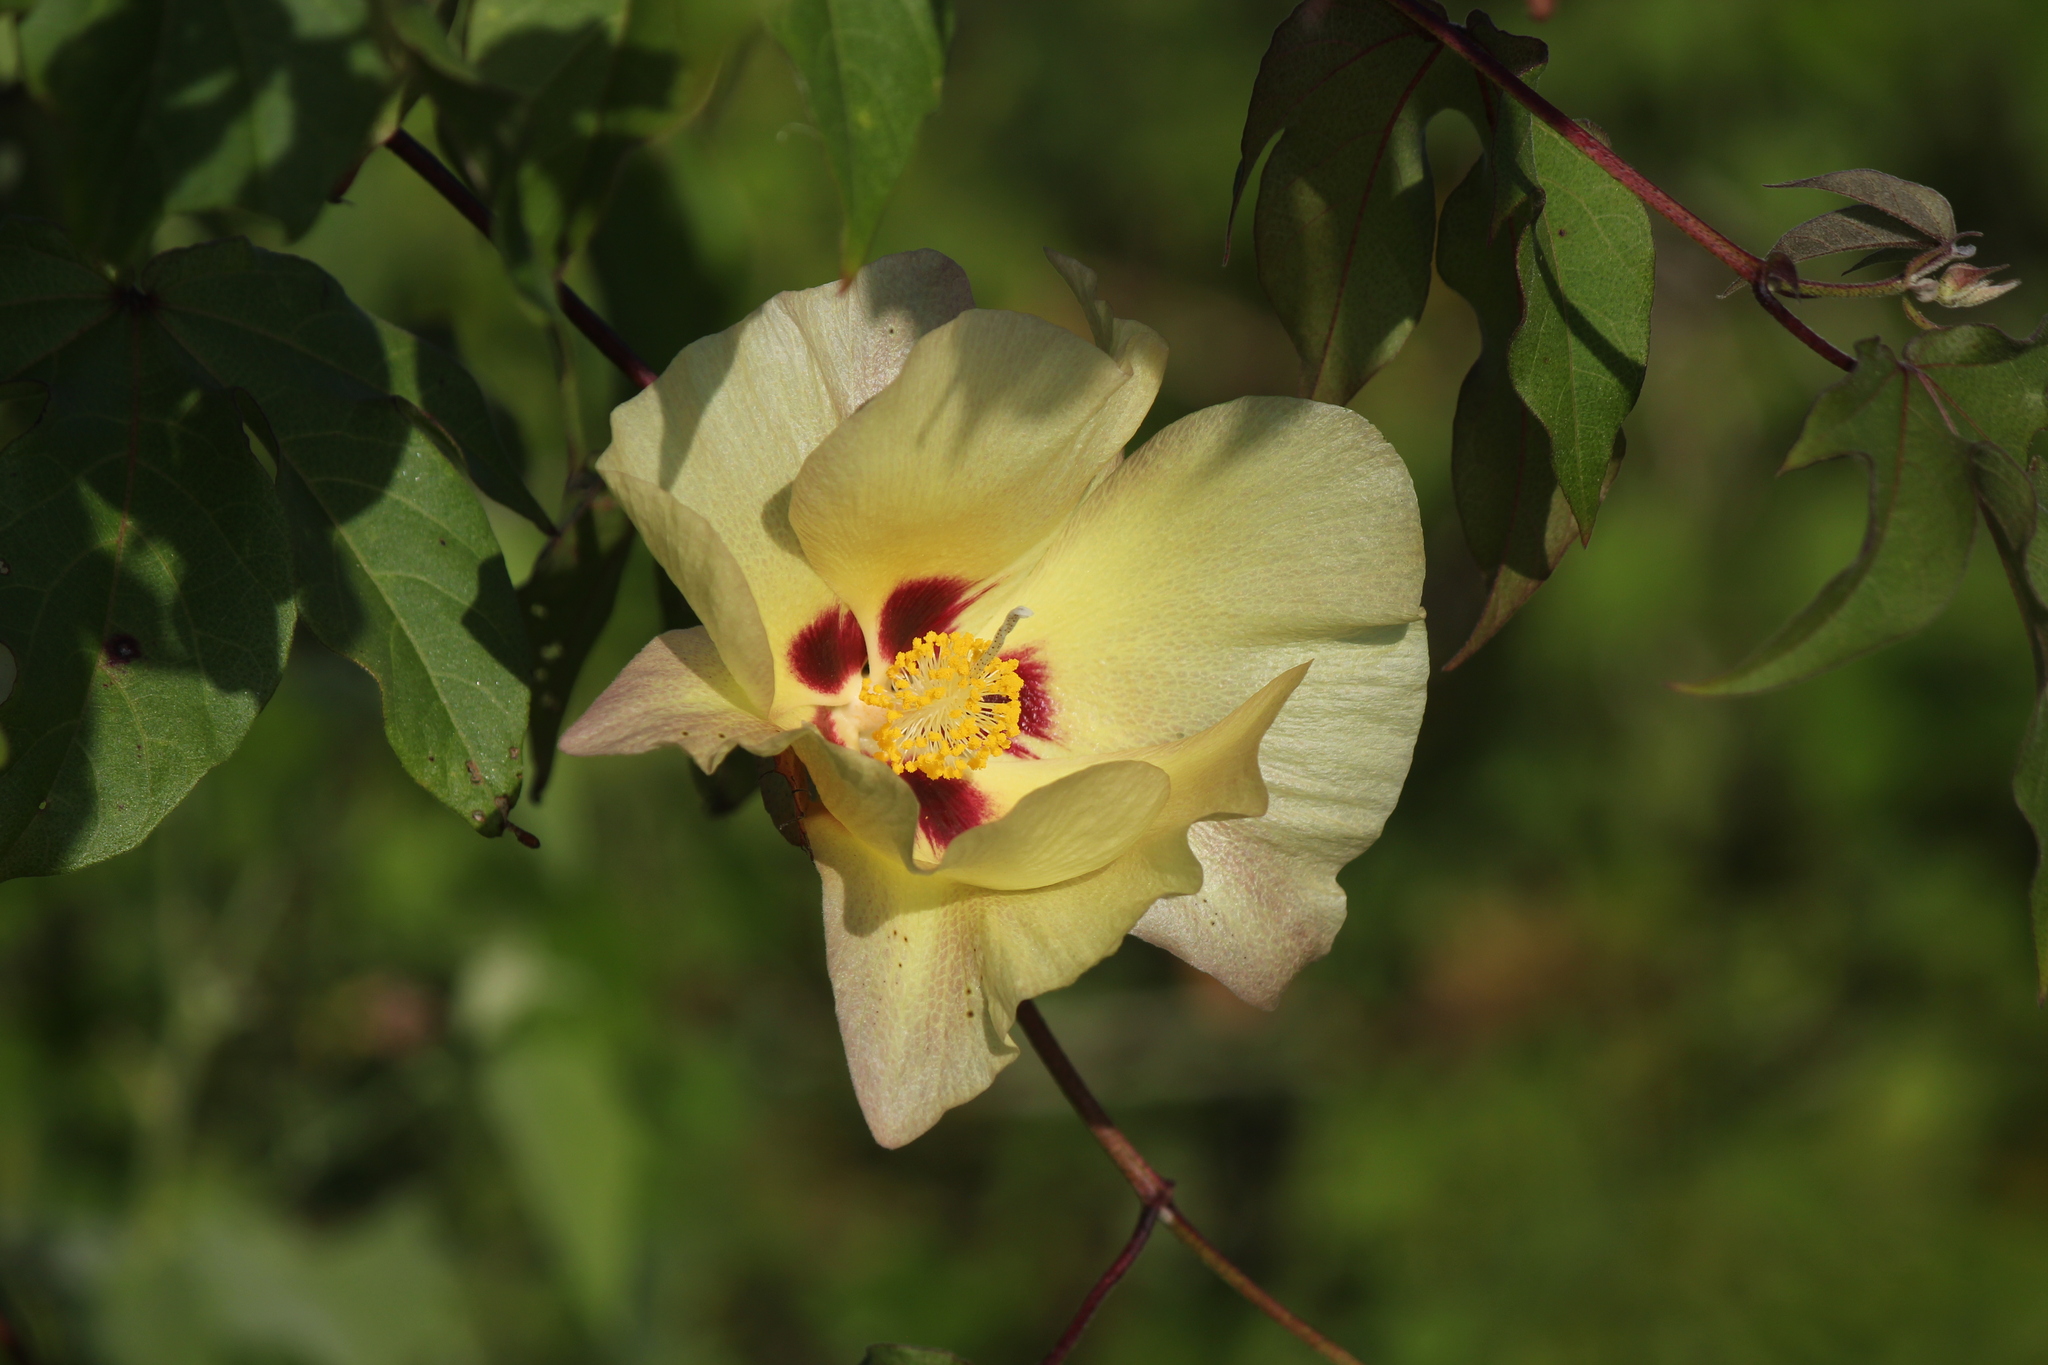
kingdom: Plantae
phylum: Tracheophyta
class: Magnoliopsida
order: Malvales
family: Malvaceae
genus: Gossypium
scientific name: Gossypium darwinii
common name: Darwin's cotton
